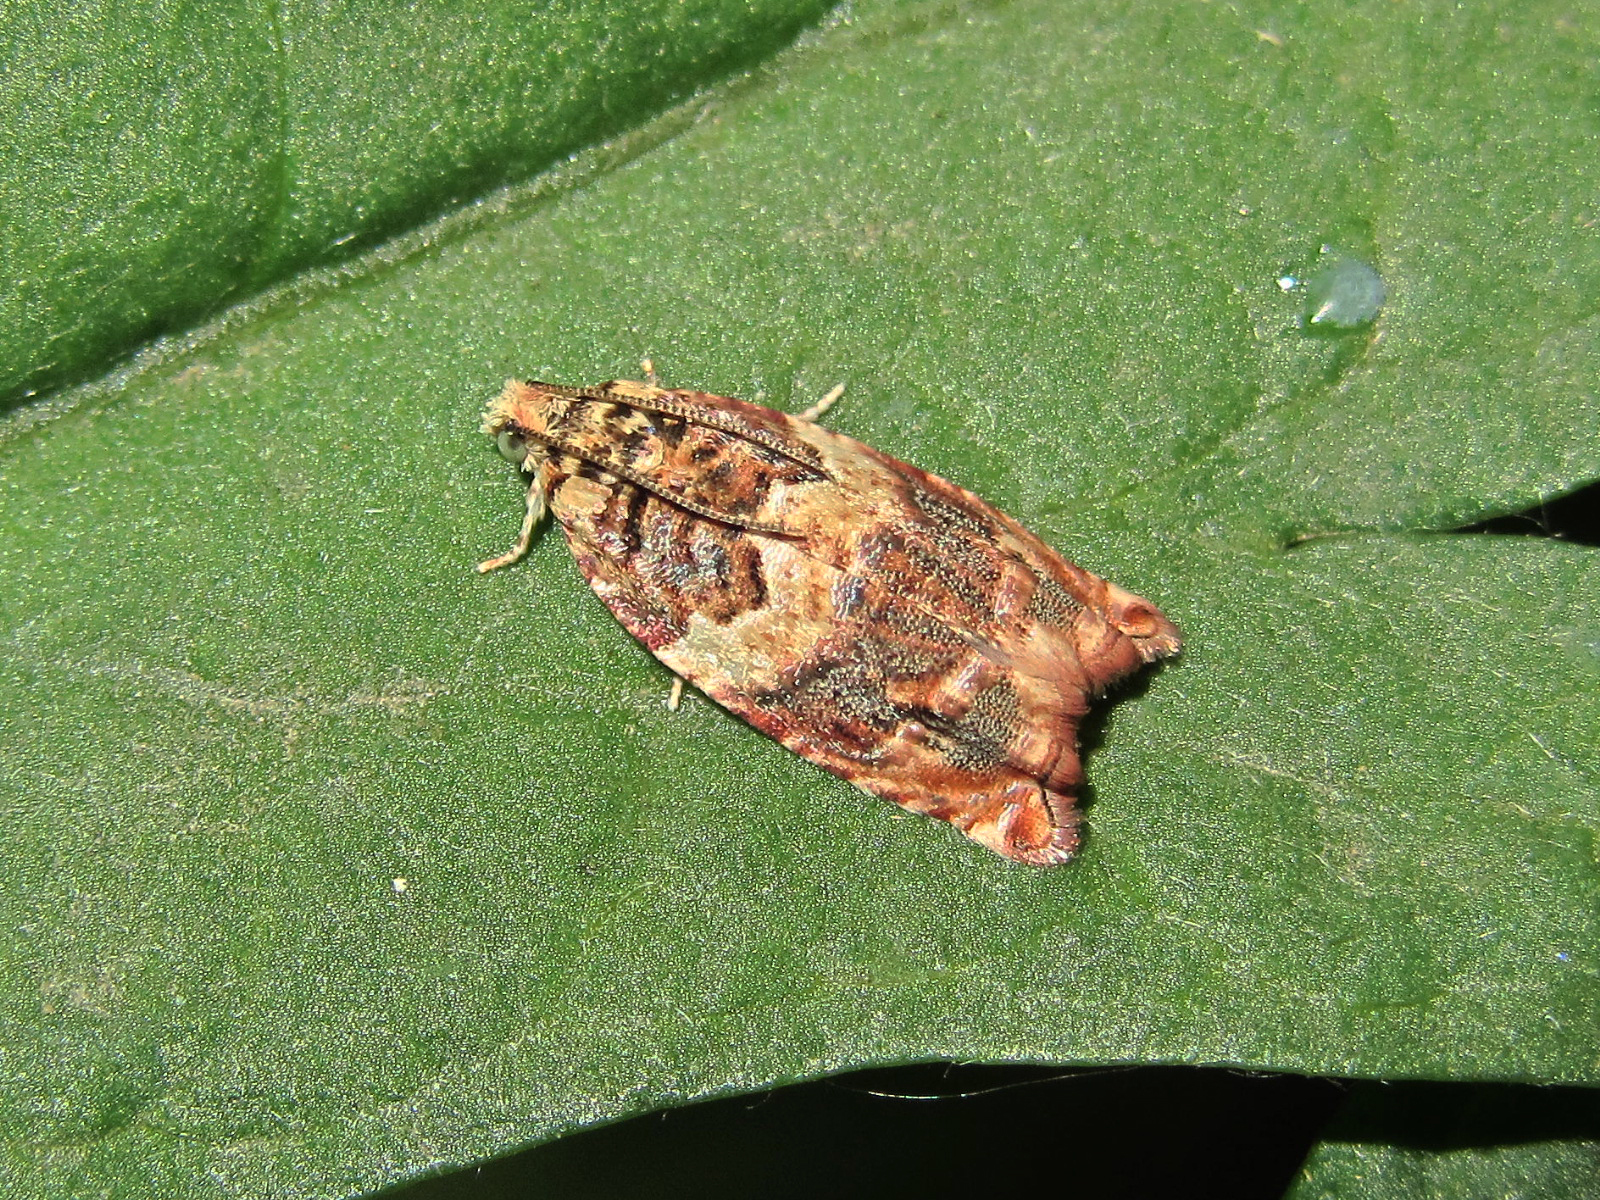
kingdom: Animalia
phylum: Arthropoda
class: Insecta
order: Lepidoptera
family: Tortricidae
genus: Gypsonoma
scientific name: Gypsonoma minutana
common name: Brindled shoot
